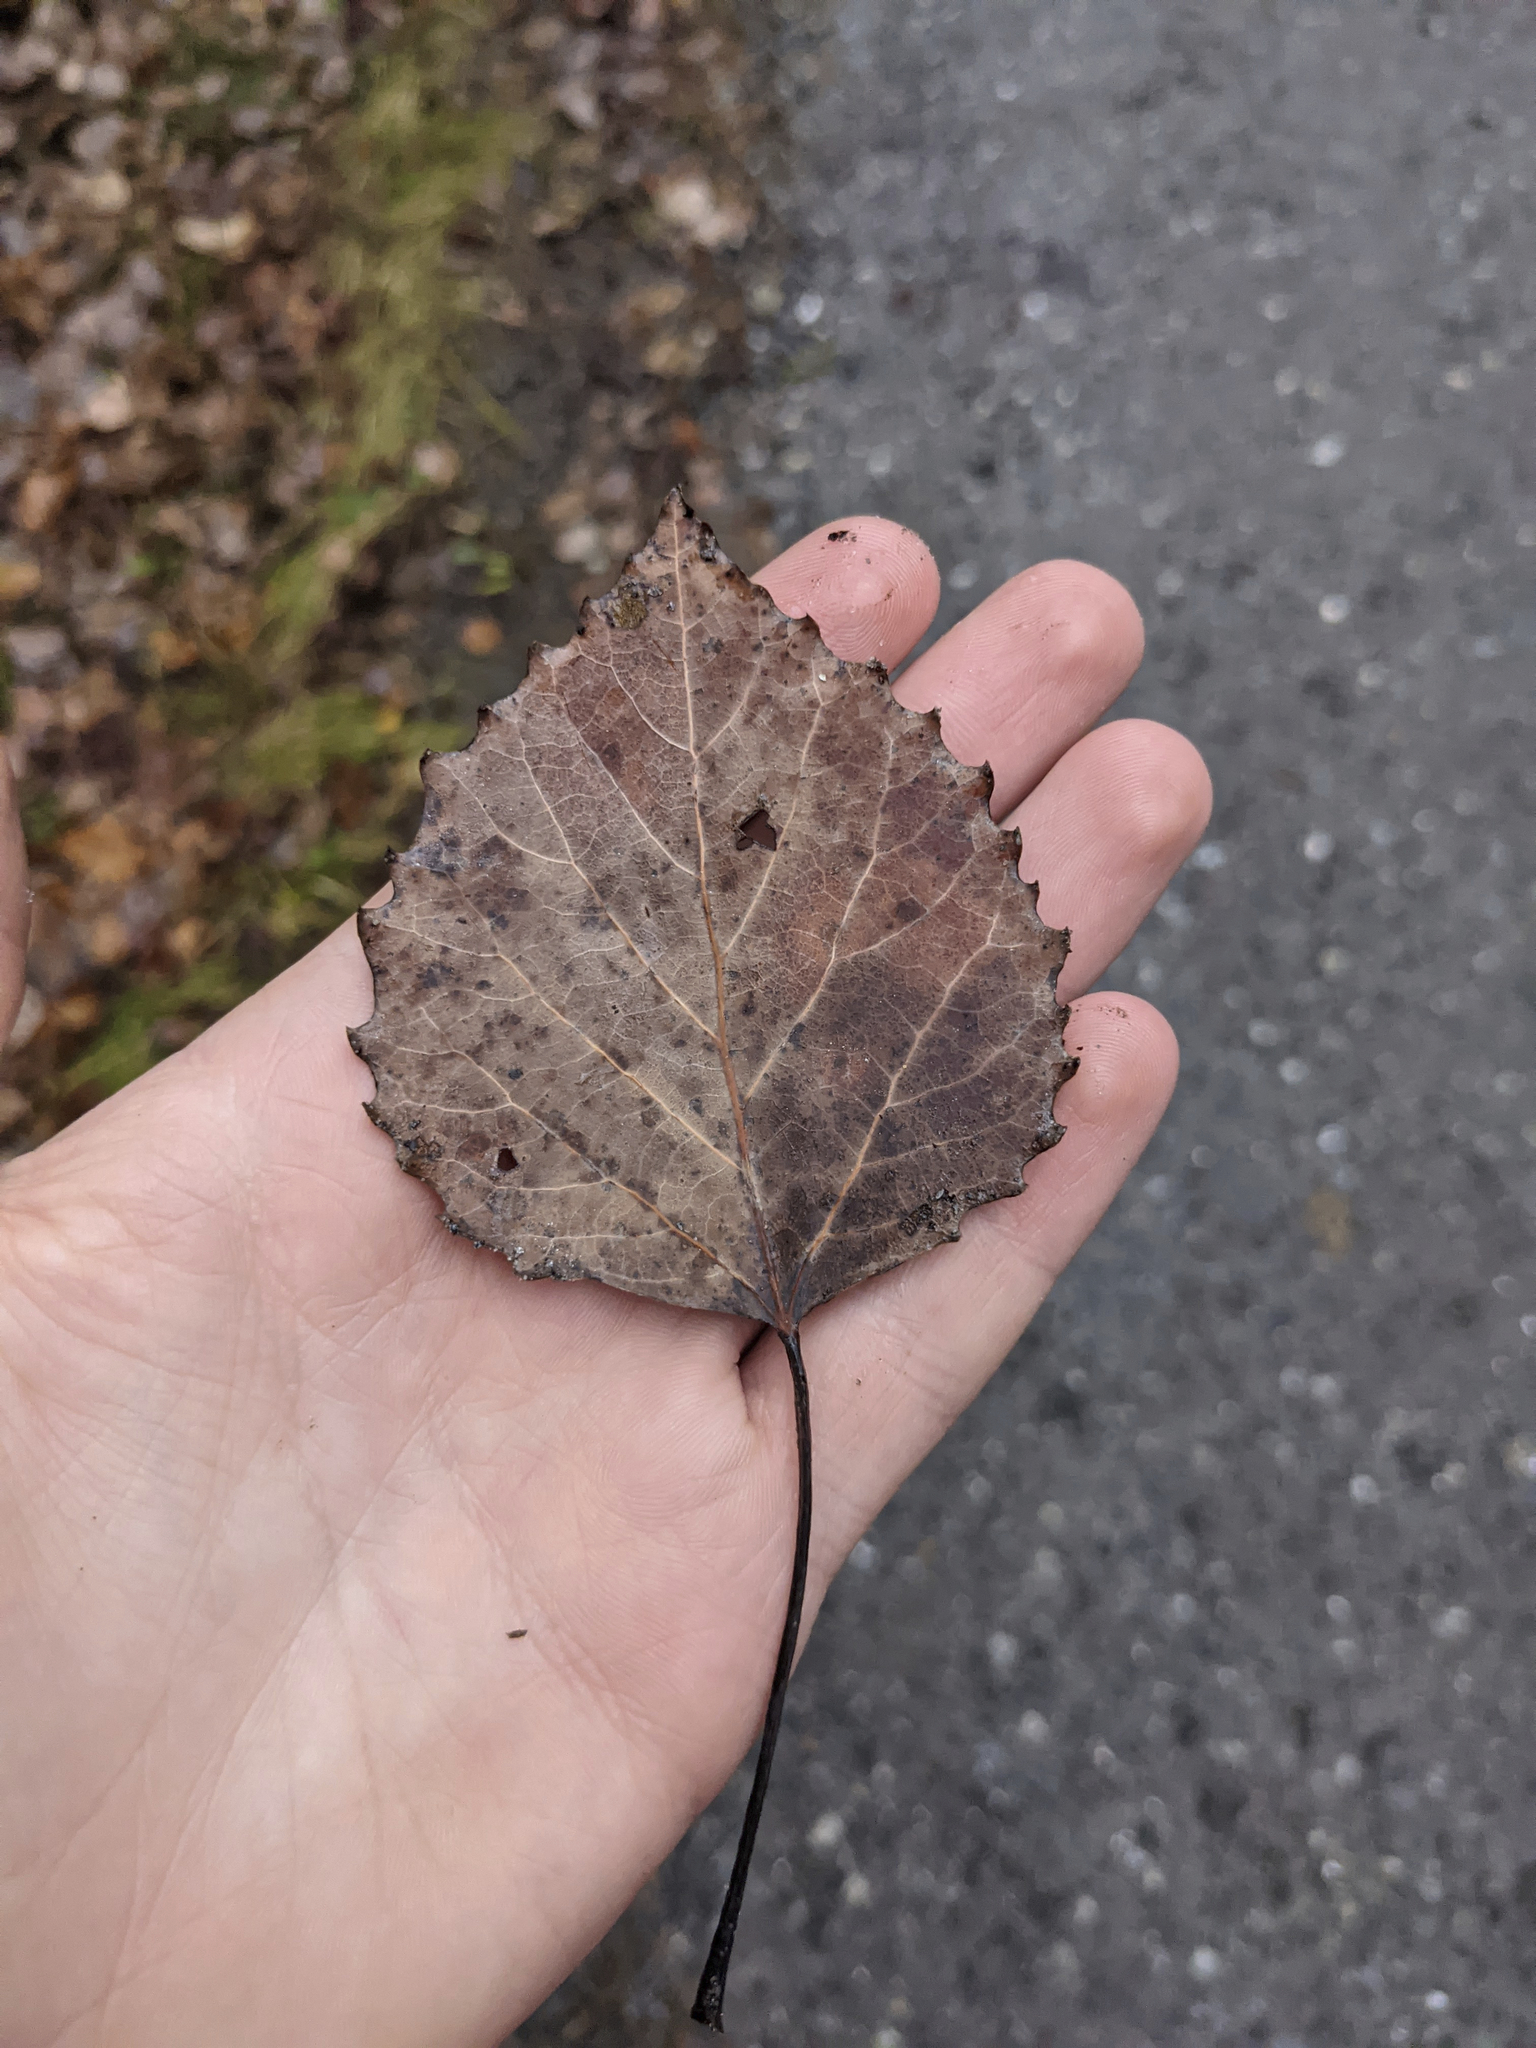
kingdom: Plantae
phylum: Tracheophyta
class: Magnoliopsida
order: Malpighiales
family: Salicaceae
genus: Populus
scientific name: Populus grandidentata
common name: Bigtooth aspen
